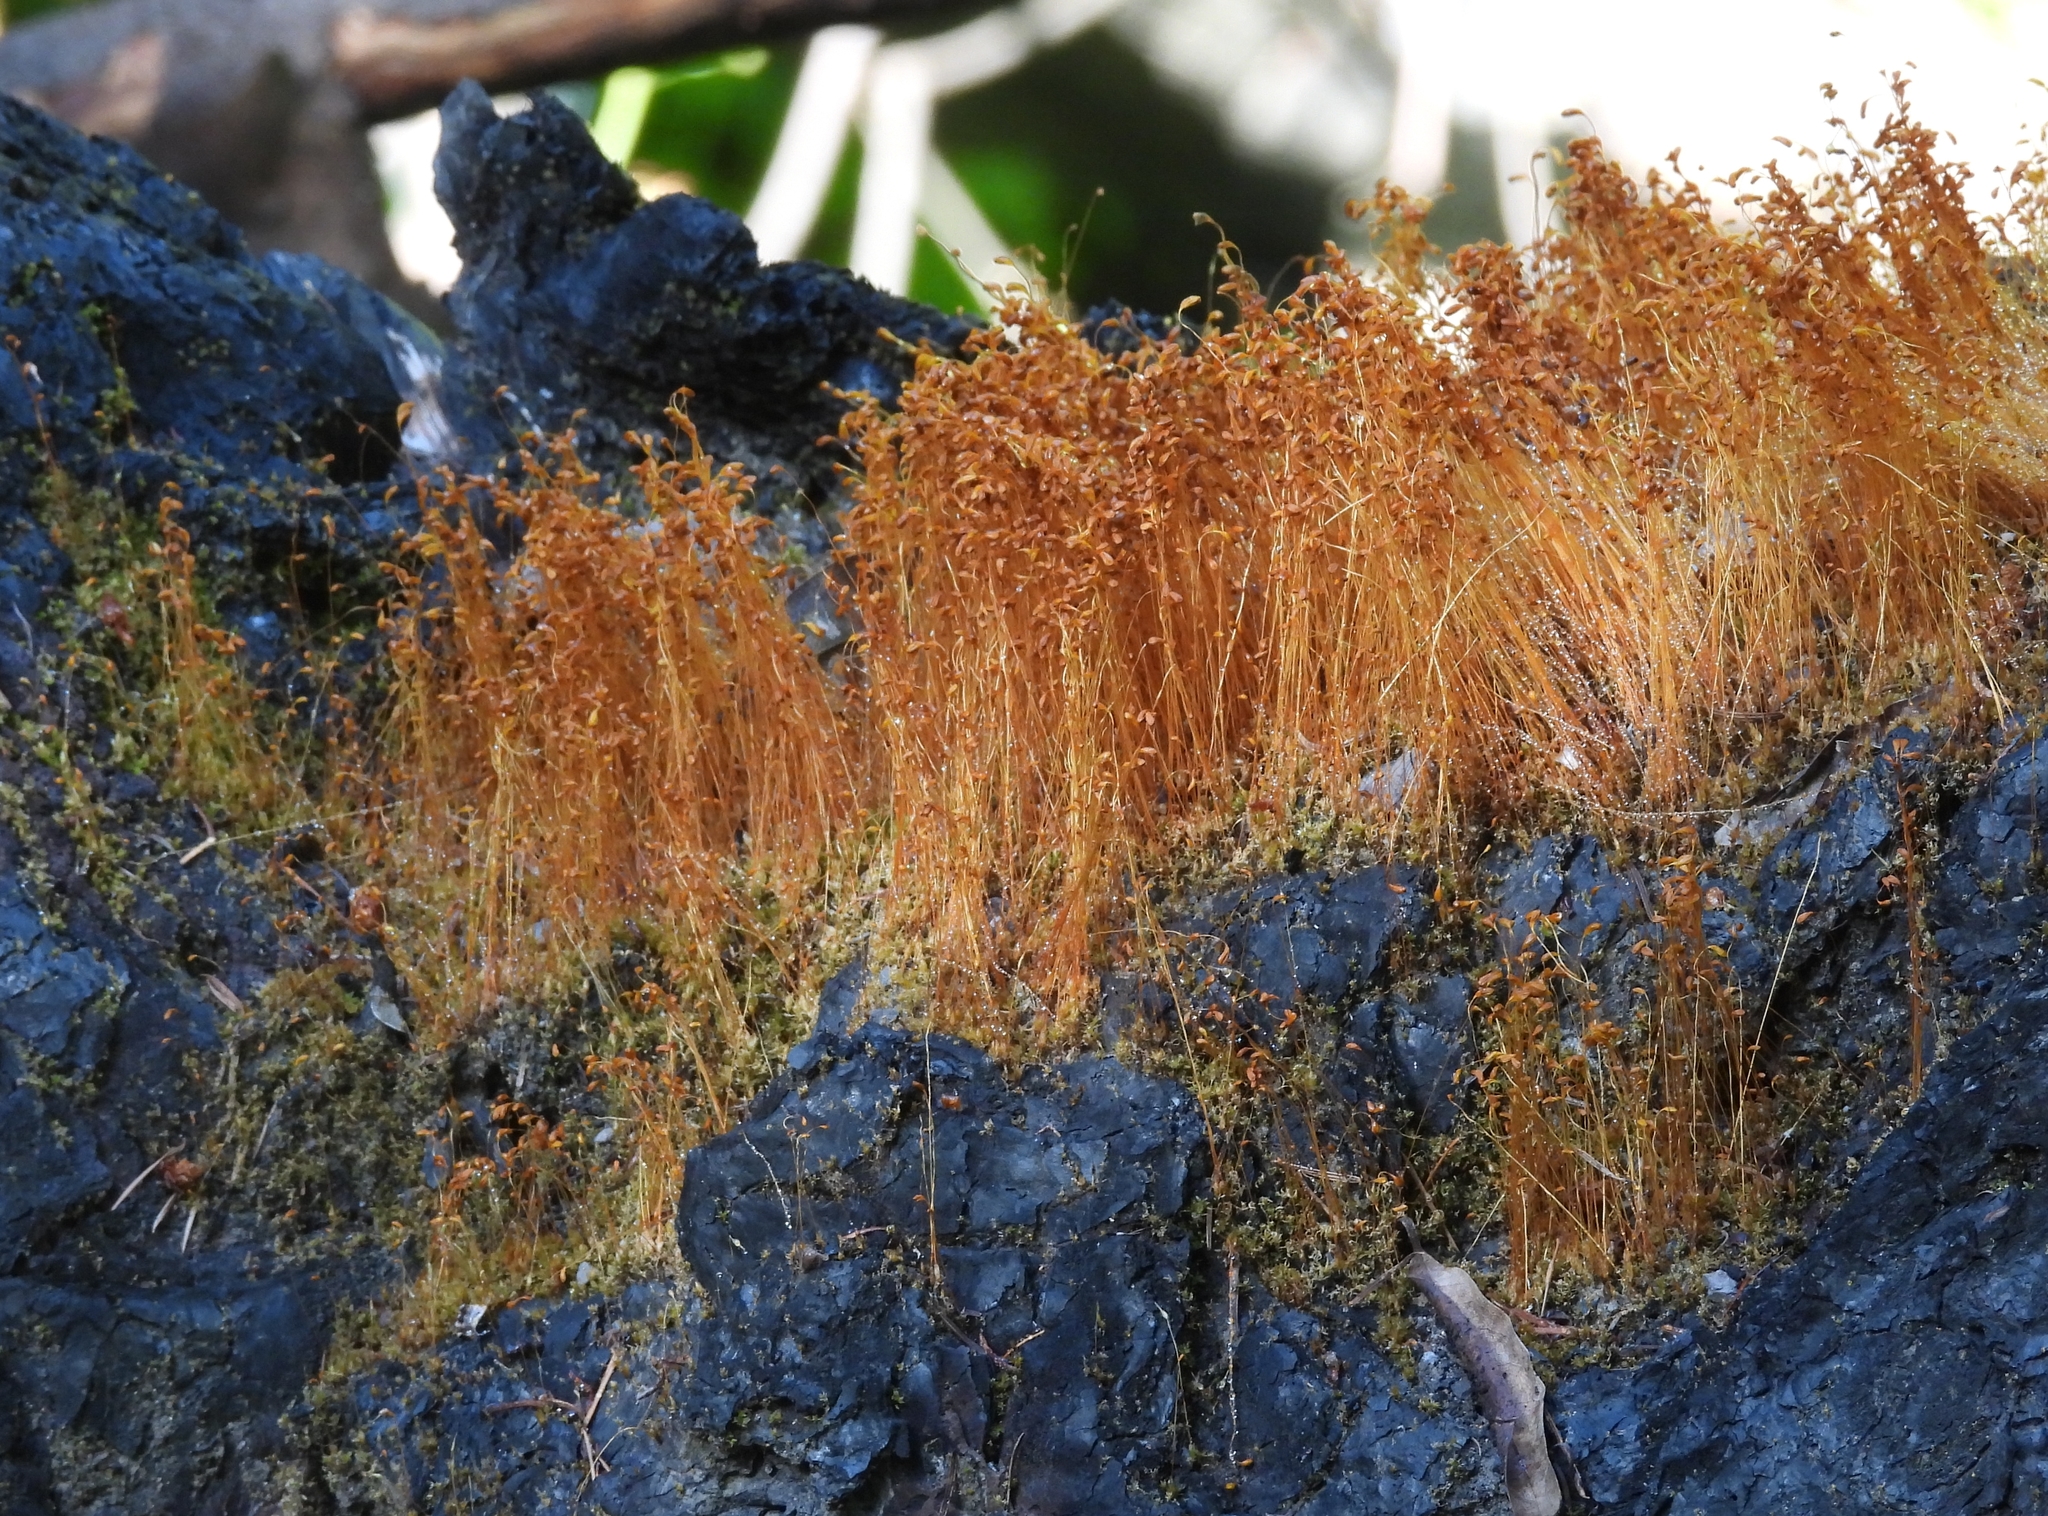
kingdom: Plantae
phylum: Bryophyta
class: Bryopsida
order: Funariales
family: Funariaceae
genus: Funaria
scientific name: Funaria hygrometrica
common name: Common cord moss
